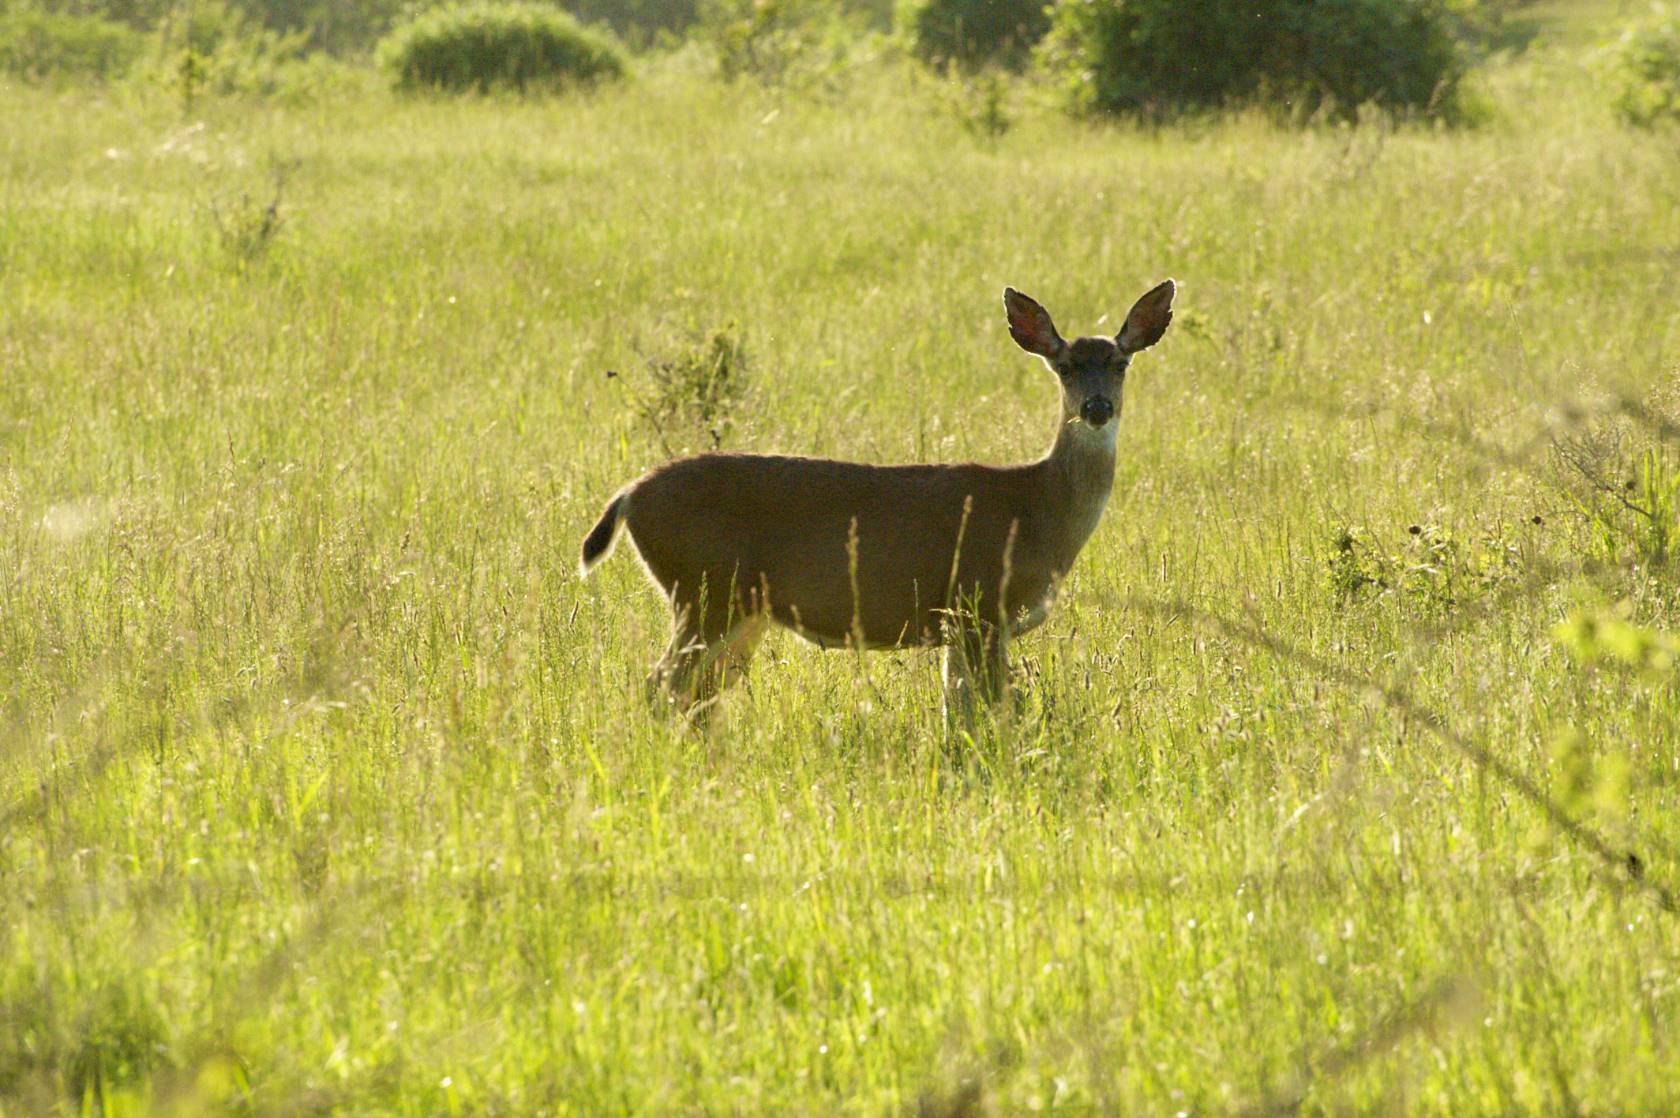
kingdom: Animalia
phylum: Chordata
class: Mammalia
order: Artiodactyla
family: Cervidae
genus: Odocoileus
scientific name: Odocoileus hemionus
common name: Mule deer
